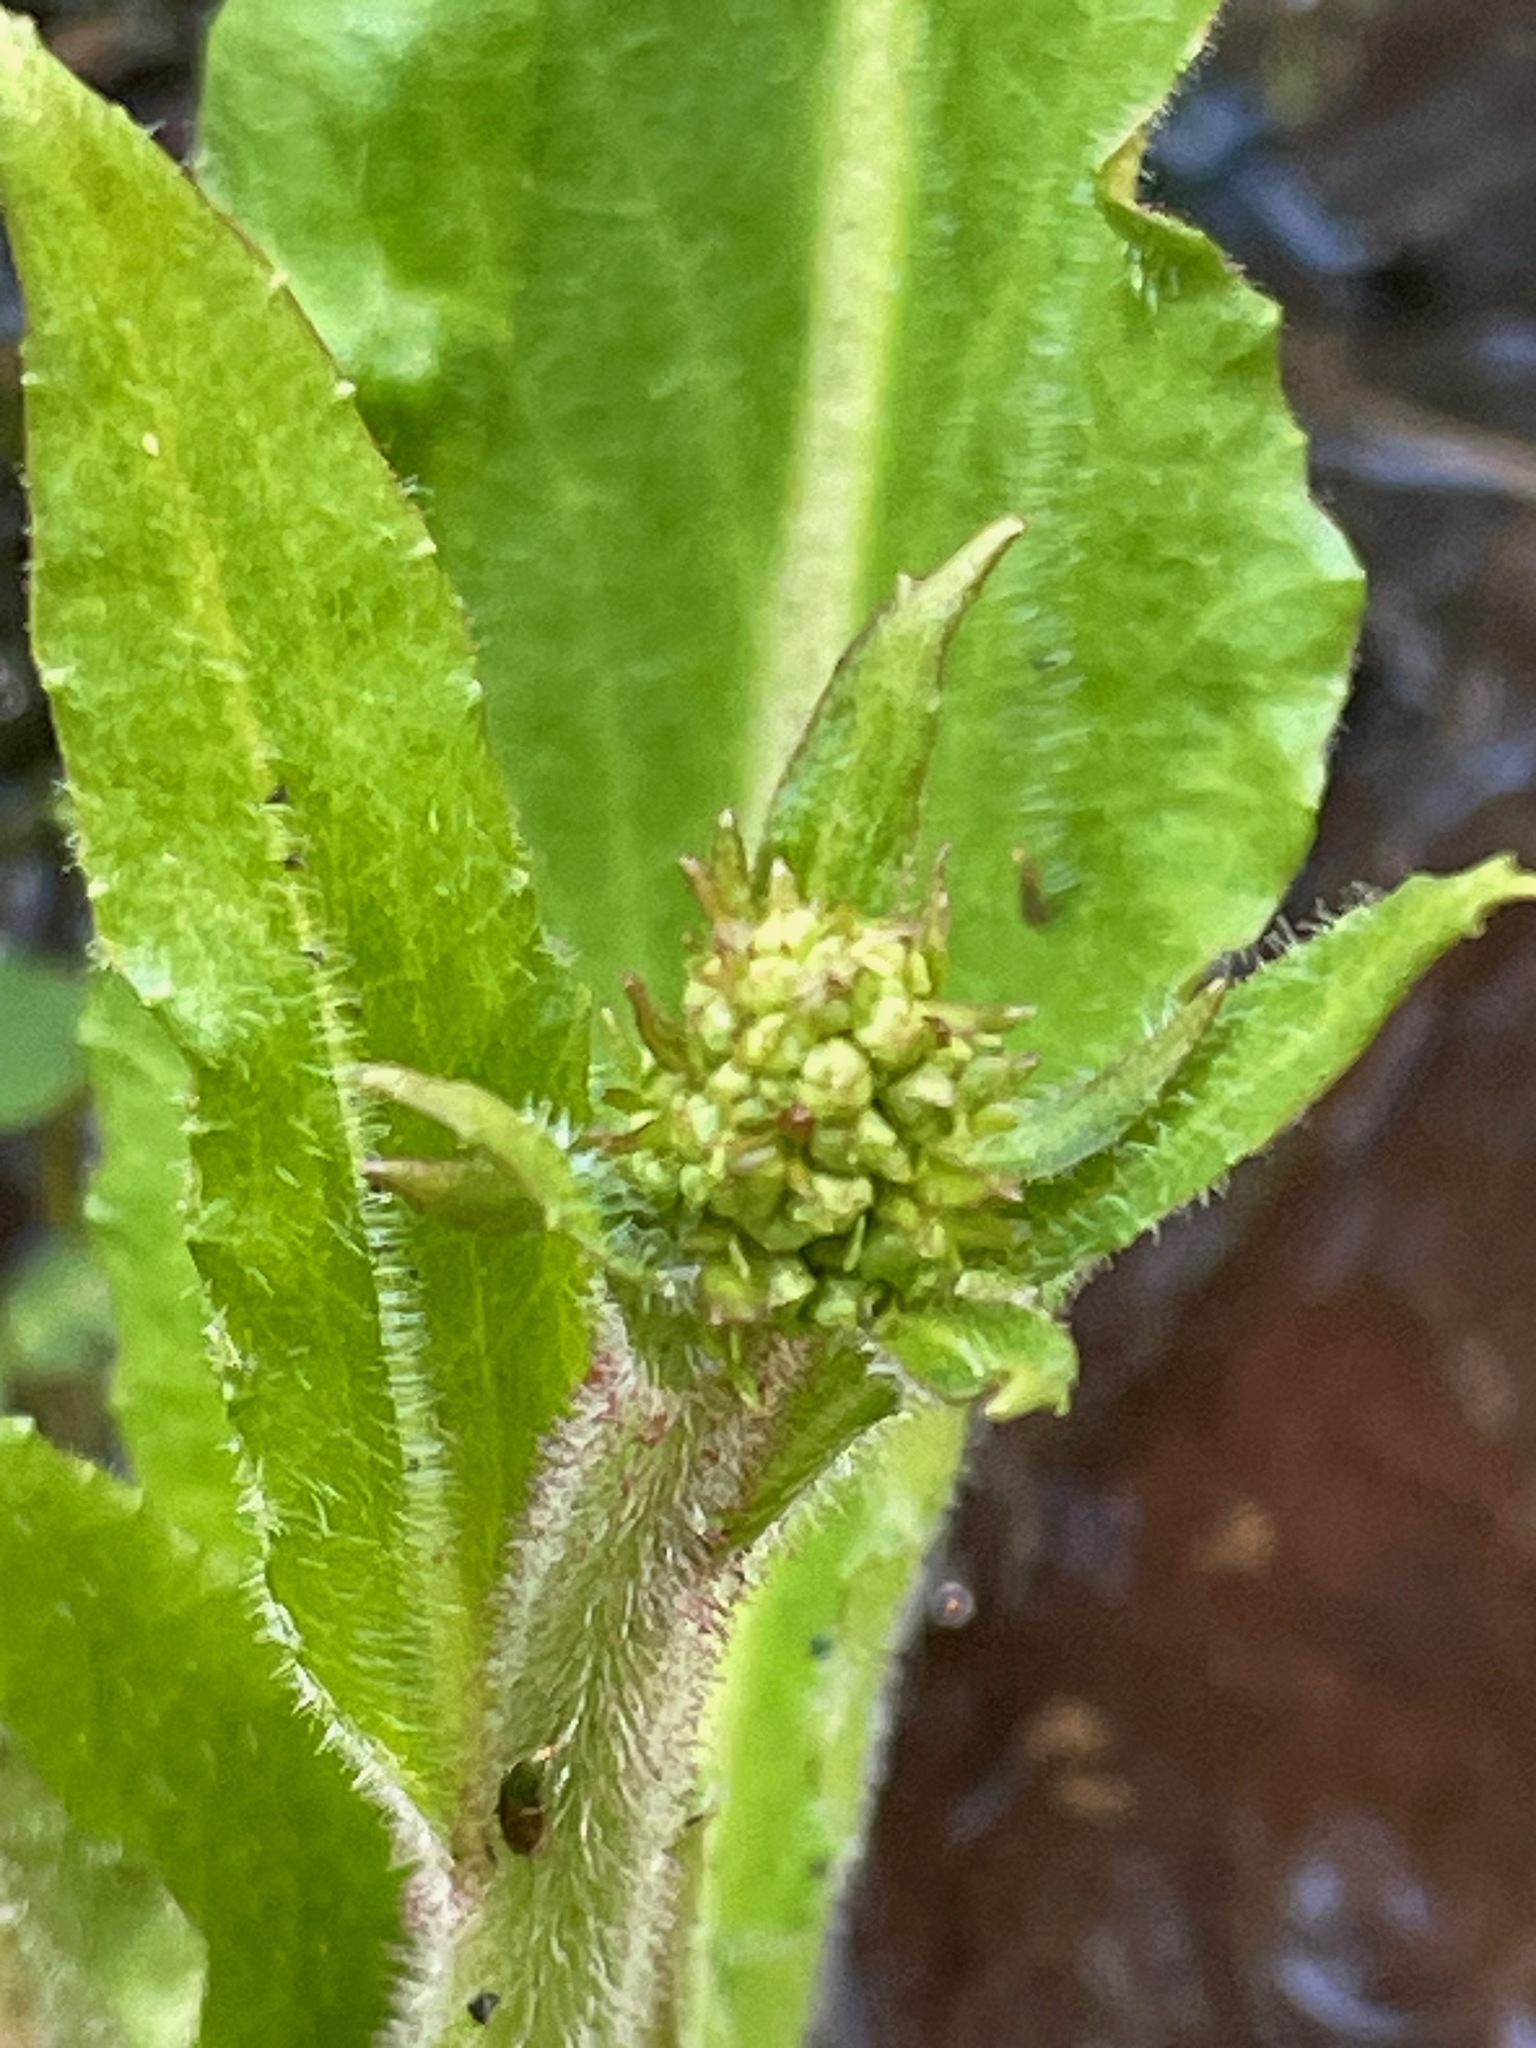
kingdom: Plantae
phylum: Tracheophyta
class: Magnoliopsida
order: Saxifragales
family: Saxifragaceae
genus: Micranthes
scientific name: Micranthes pensylvanica
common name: Marsh saxifrage
